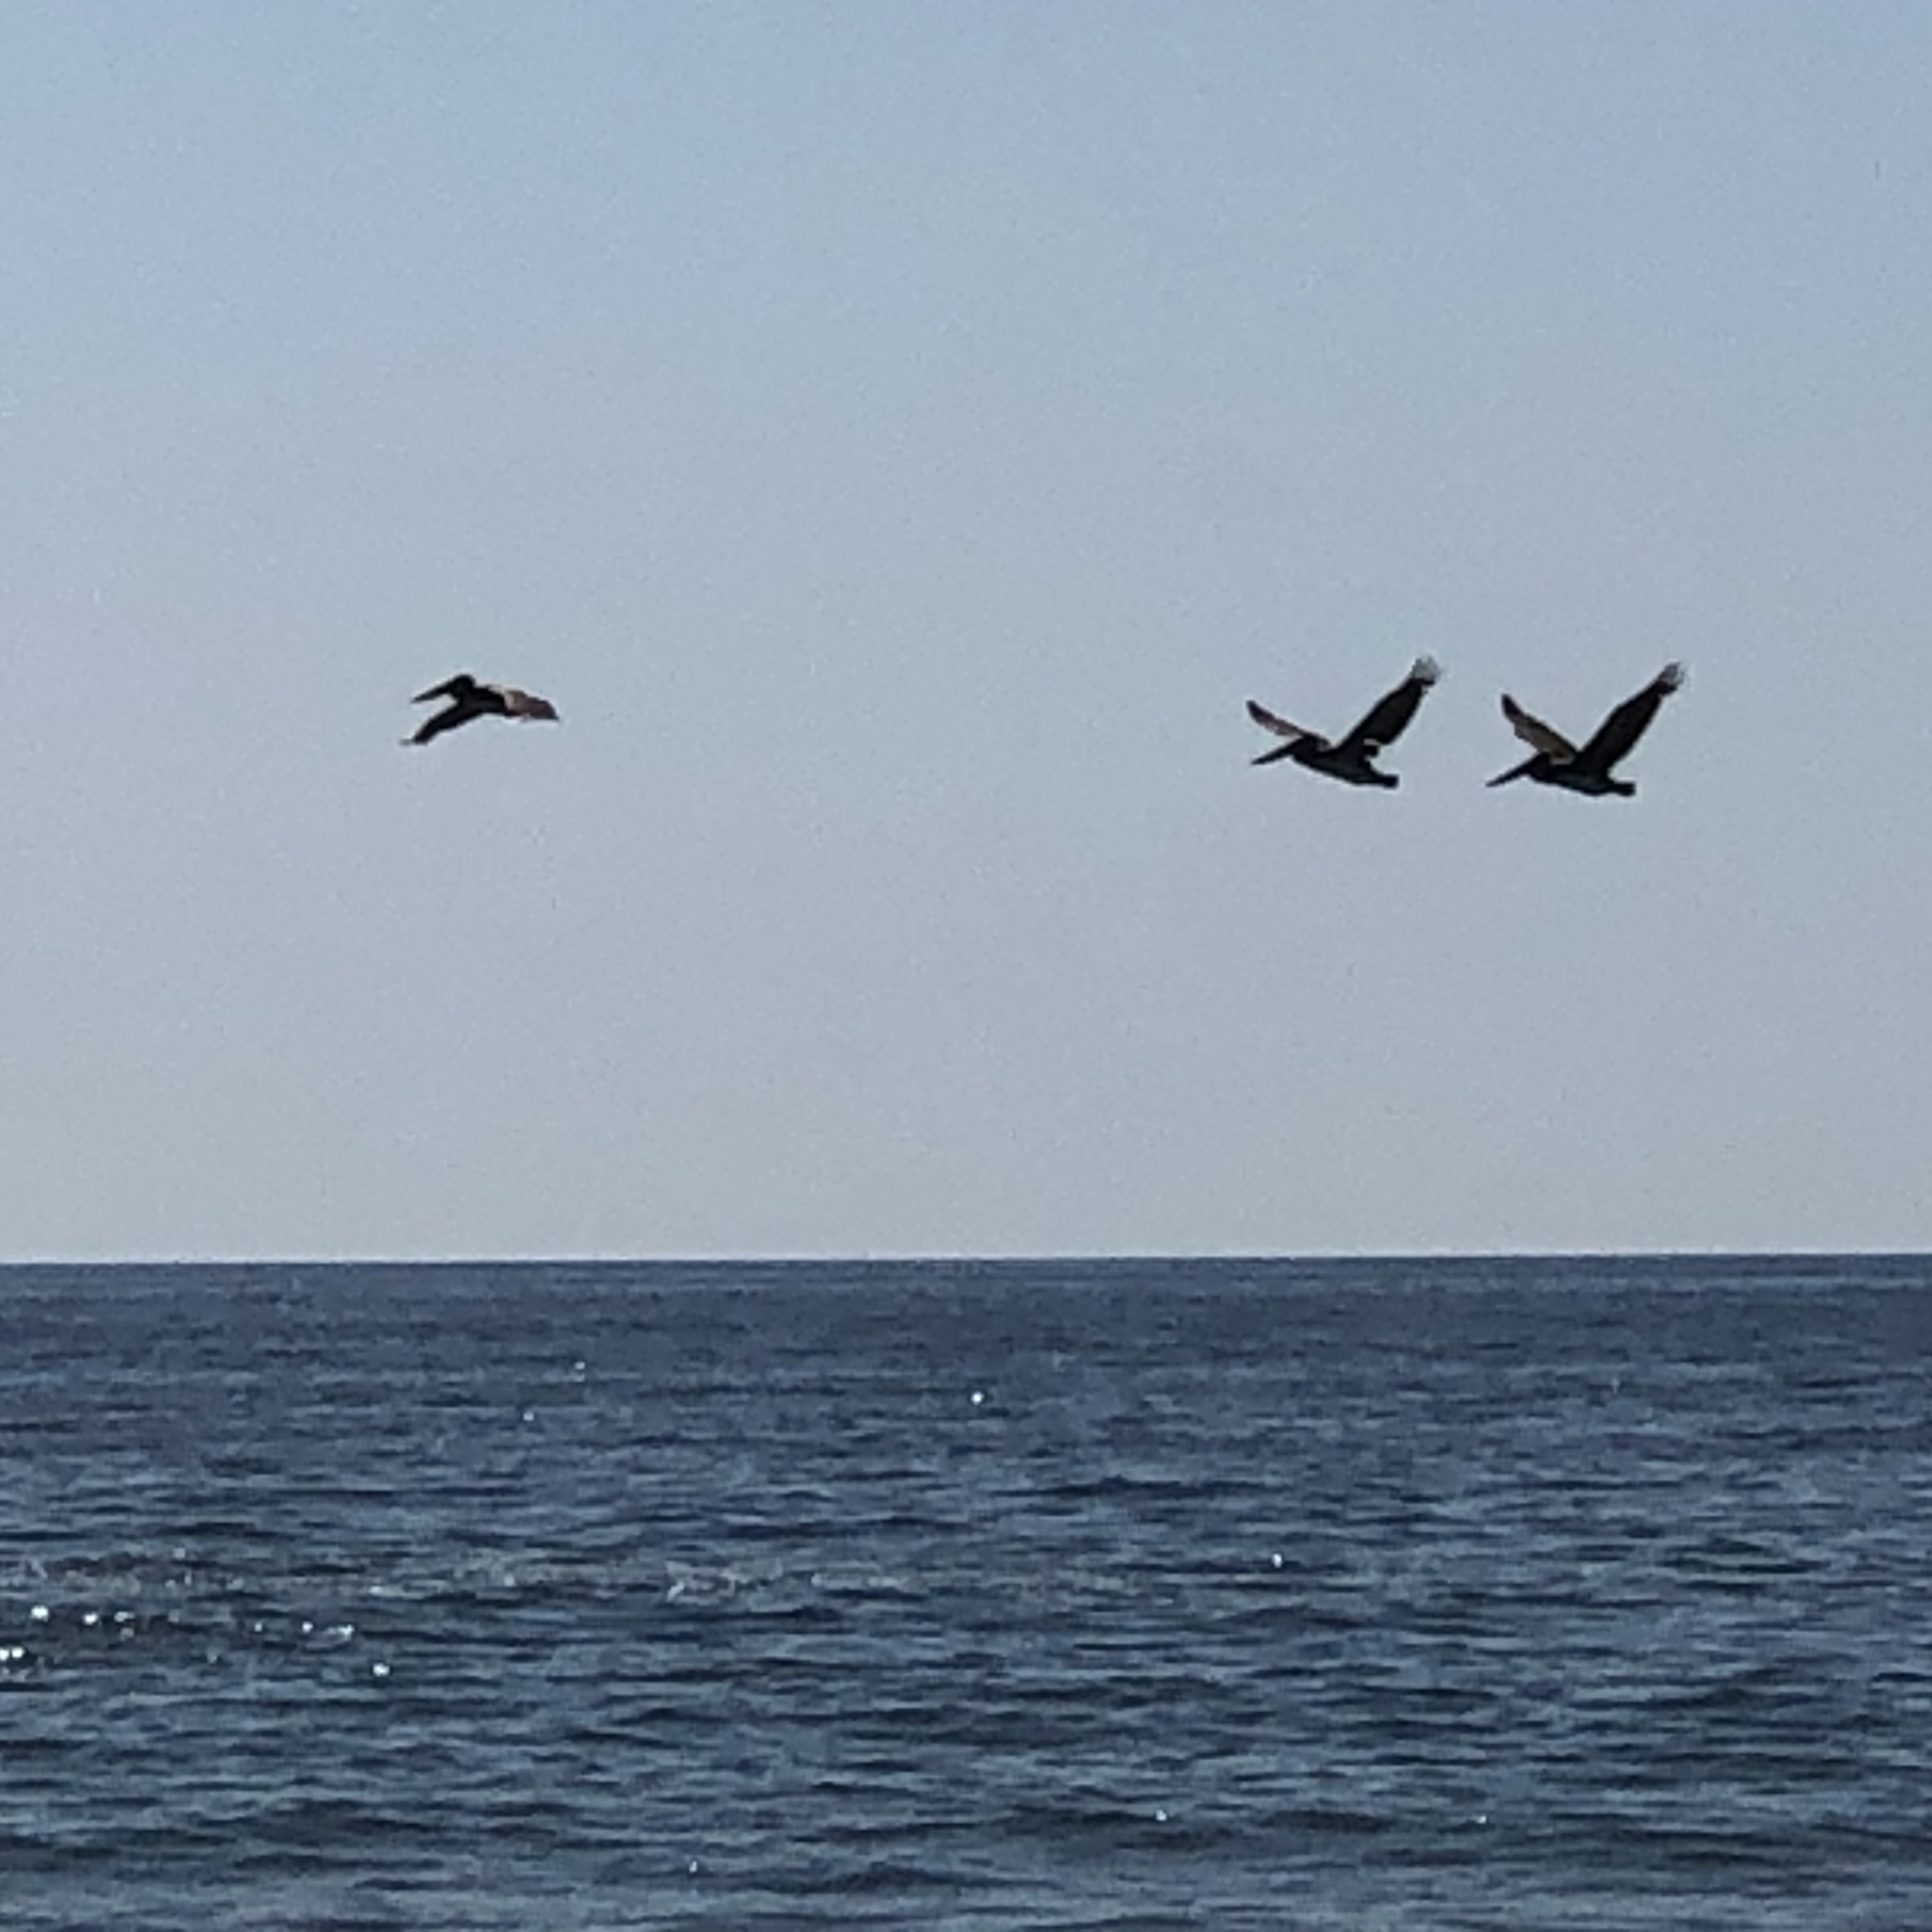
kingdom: Animalia
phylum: Chordata
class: Aves
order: Pelecaniformes
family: Pelecanidae
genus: Pelecanus
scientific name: Pelecanus occidentalis
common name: Brown pelican
